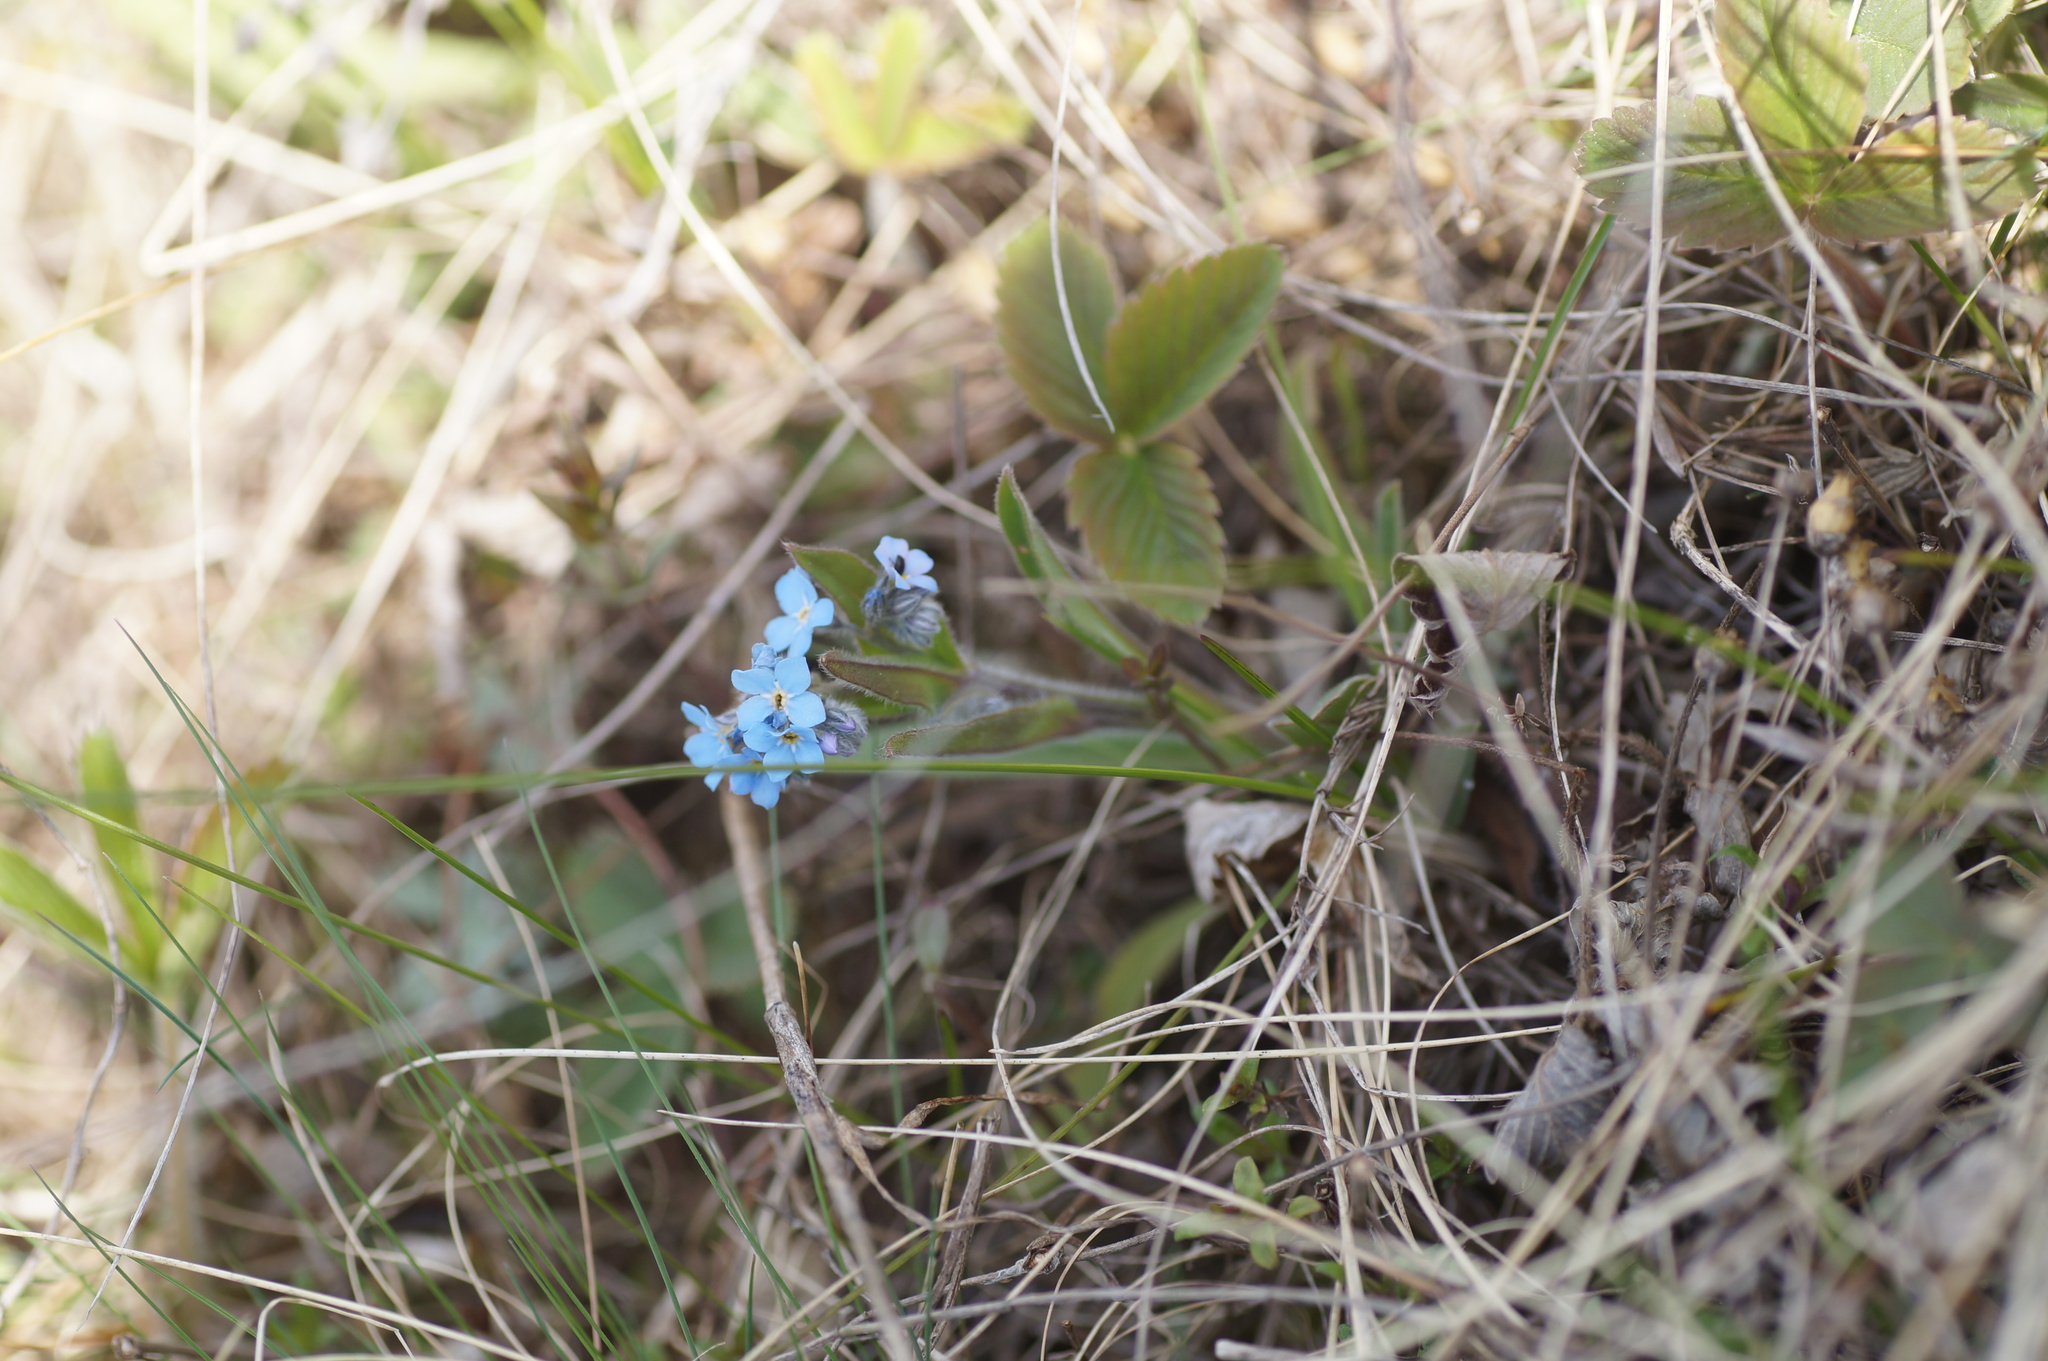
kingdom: Plantae
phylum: Tracheophyta
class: Magnoliopsida
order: Boraginales
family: Boraginaceae
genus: Myosotis
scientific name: Myosotis sylvatica
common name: Wood forget-me-not
